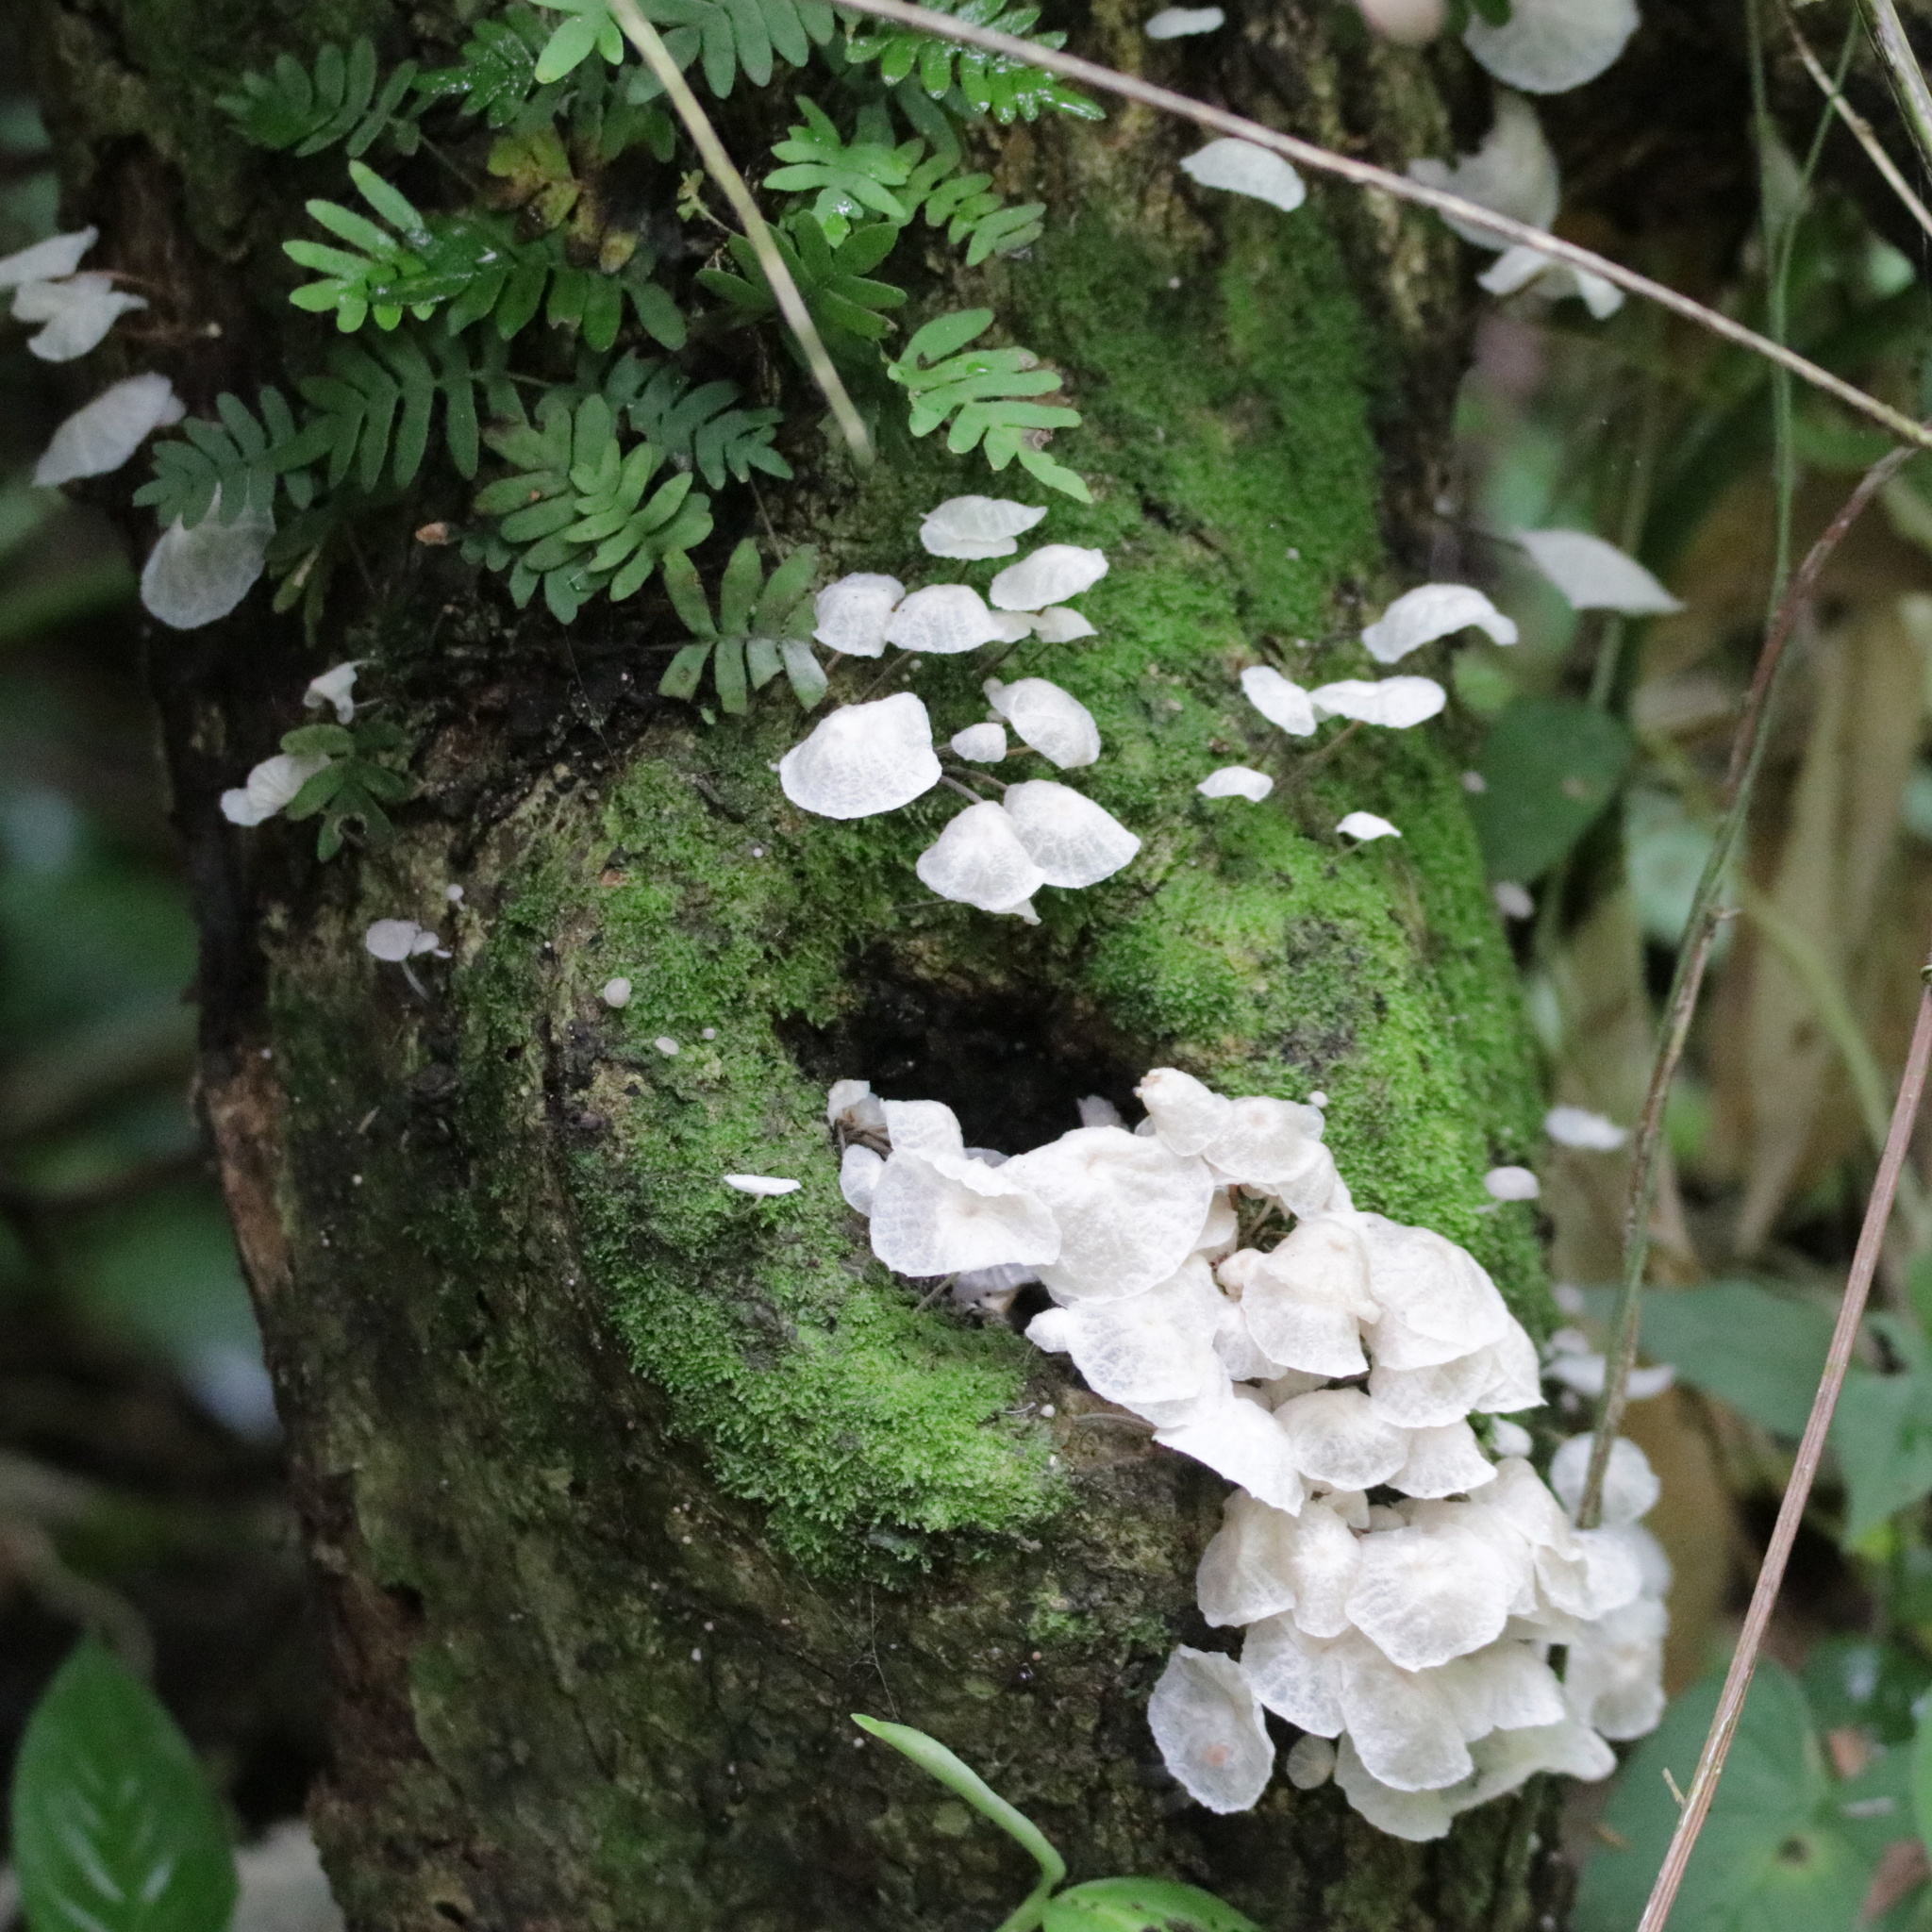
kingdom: Fungi
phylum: Basidiomycota
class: Agaricomycetes
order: Agaricales
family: Omphalotaceae
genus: Marasmiellus
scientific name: Marasmiellus candidus
